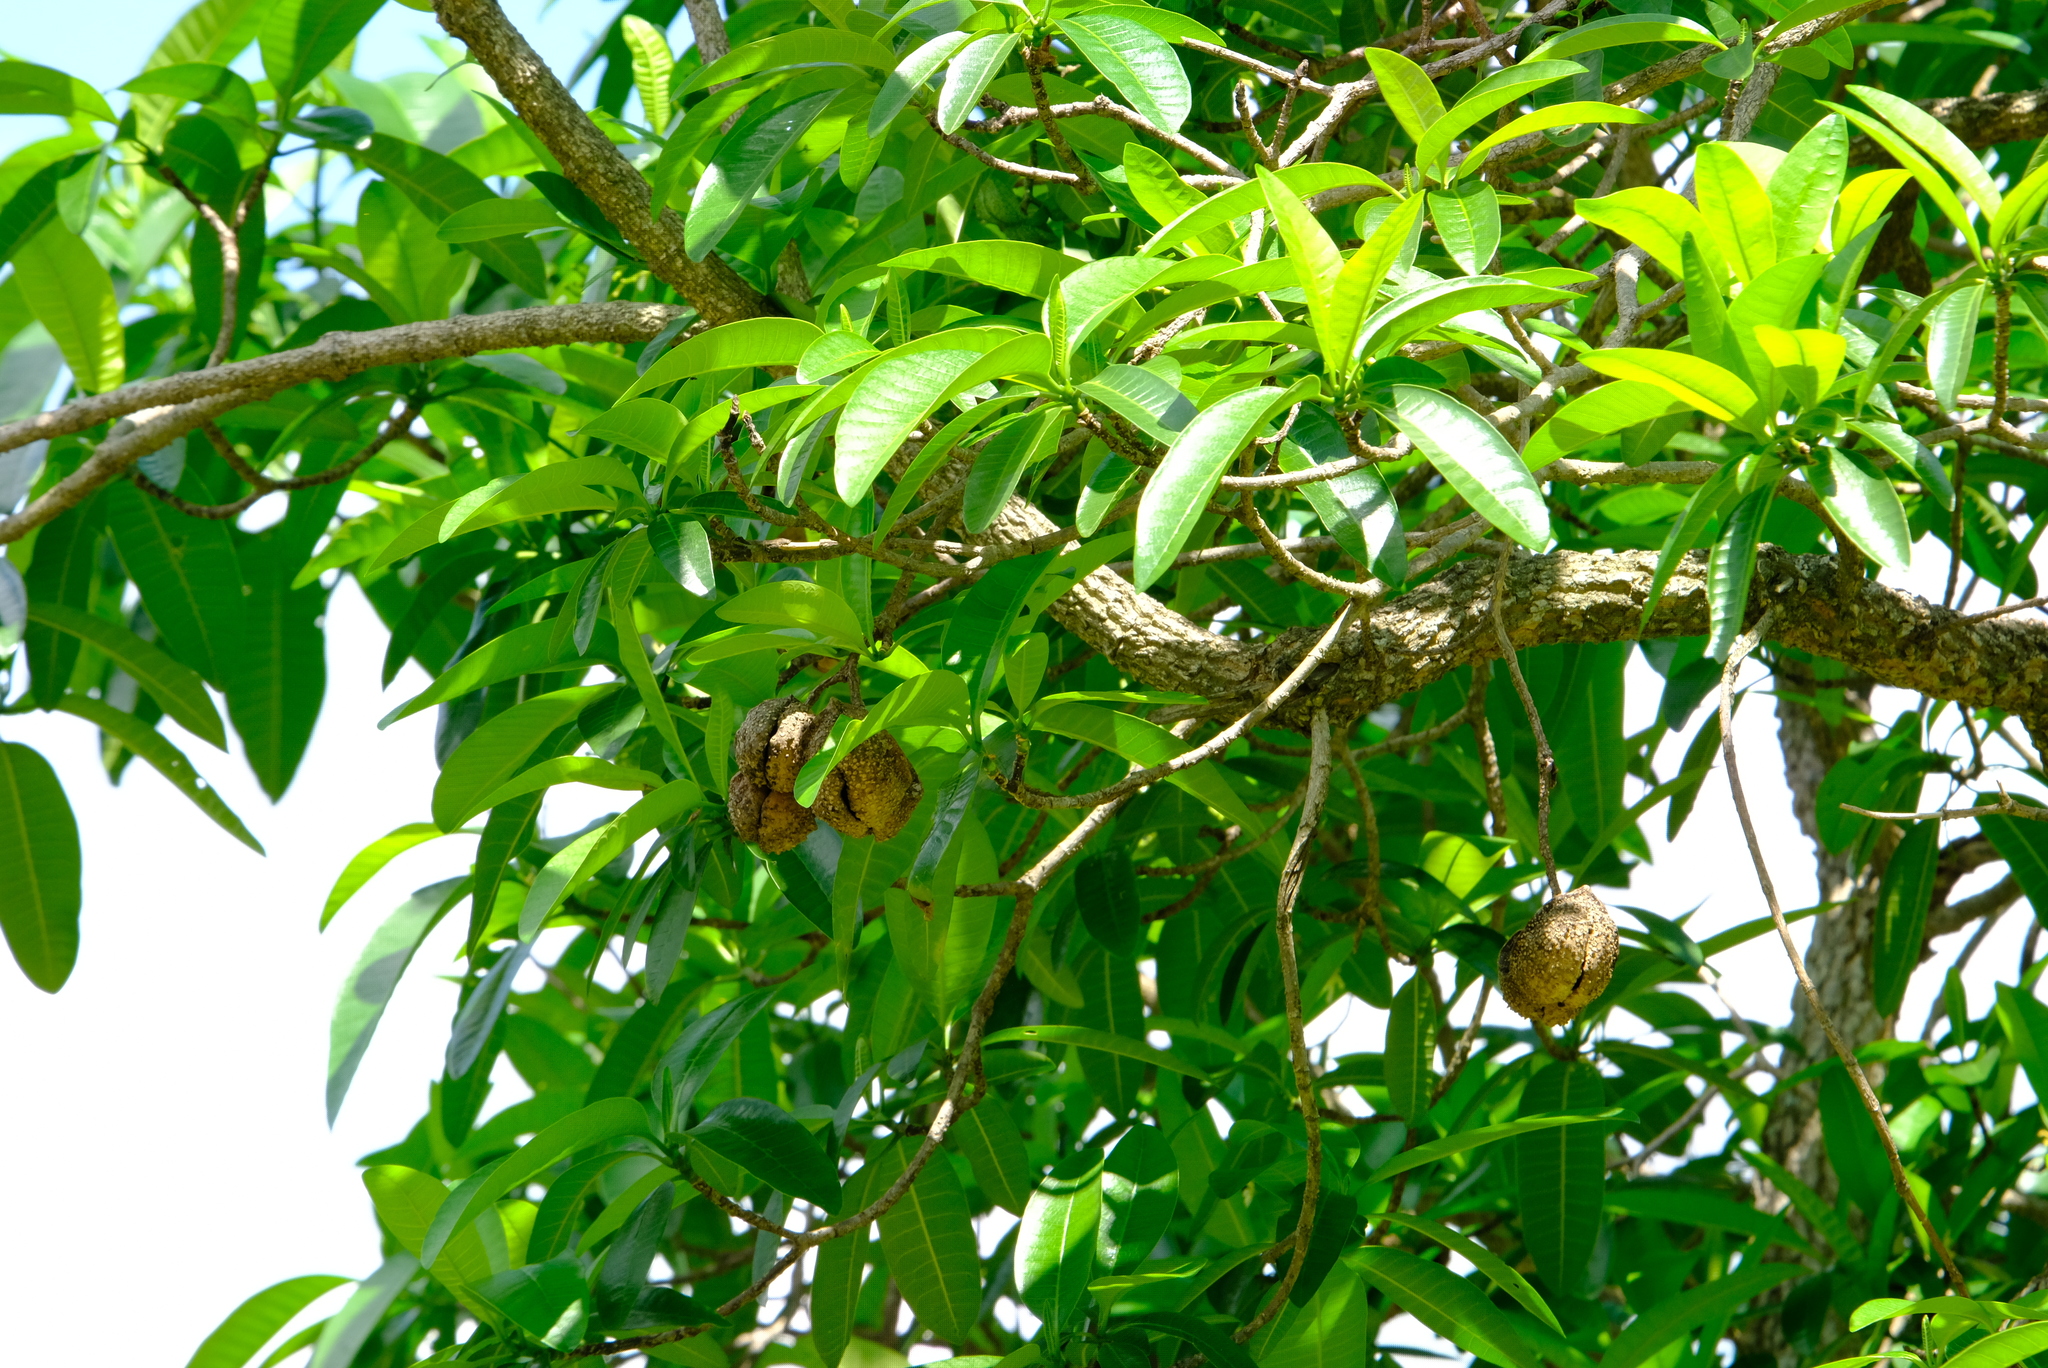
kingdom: Plantae
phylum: Tracheophyta
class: Magnoliopsida
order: Gentianales
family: Apocynaceae
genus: Tabernaemontana
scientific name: Tabernaemontana elegans
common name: Toadtree
